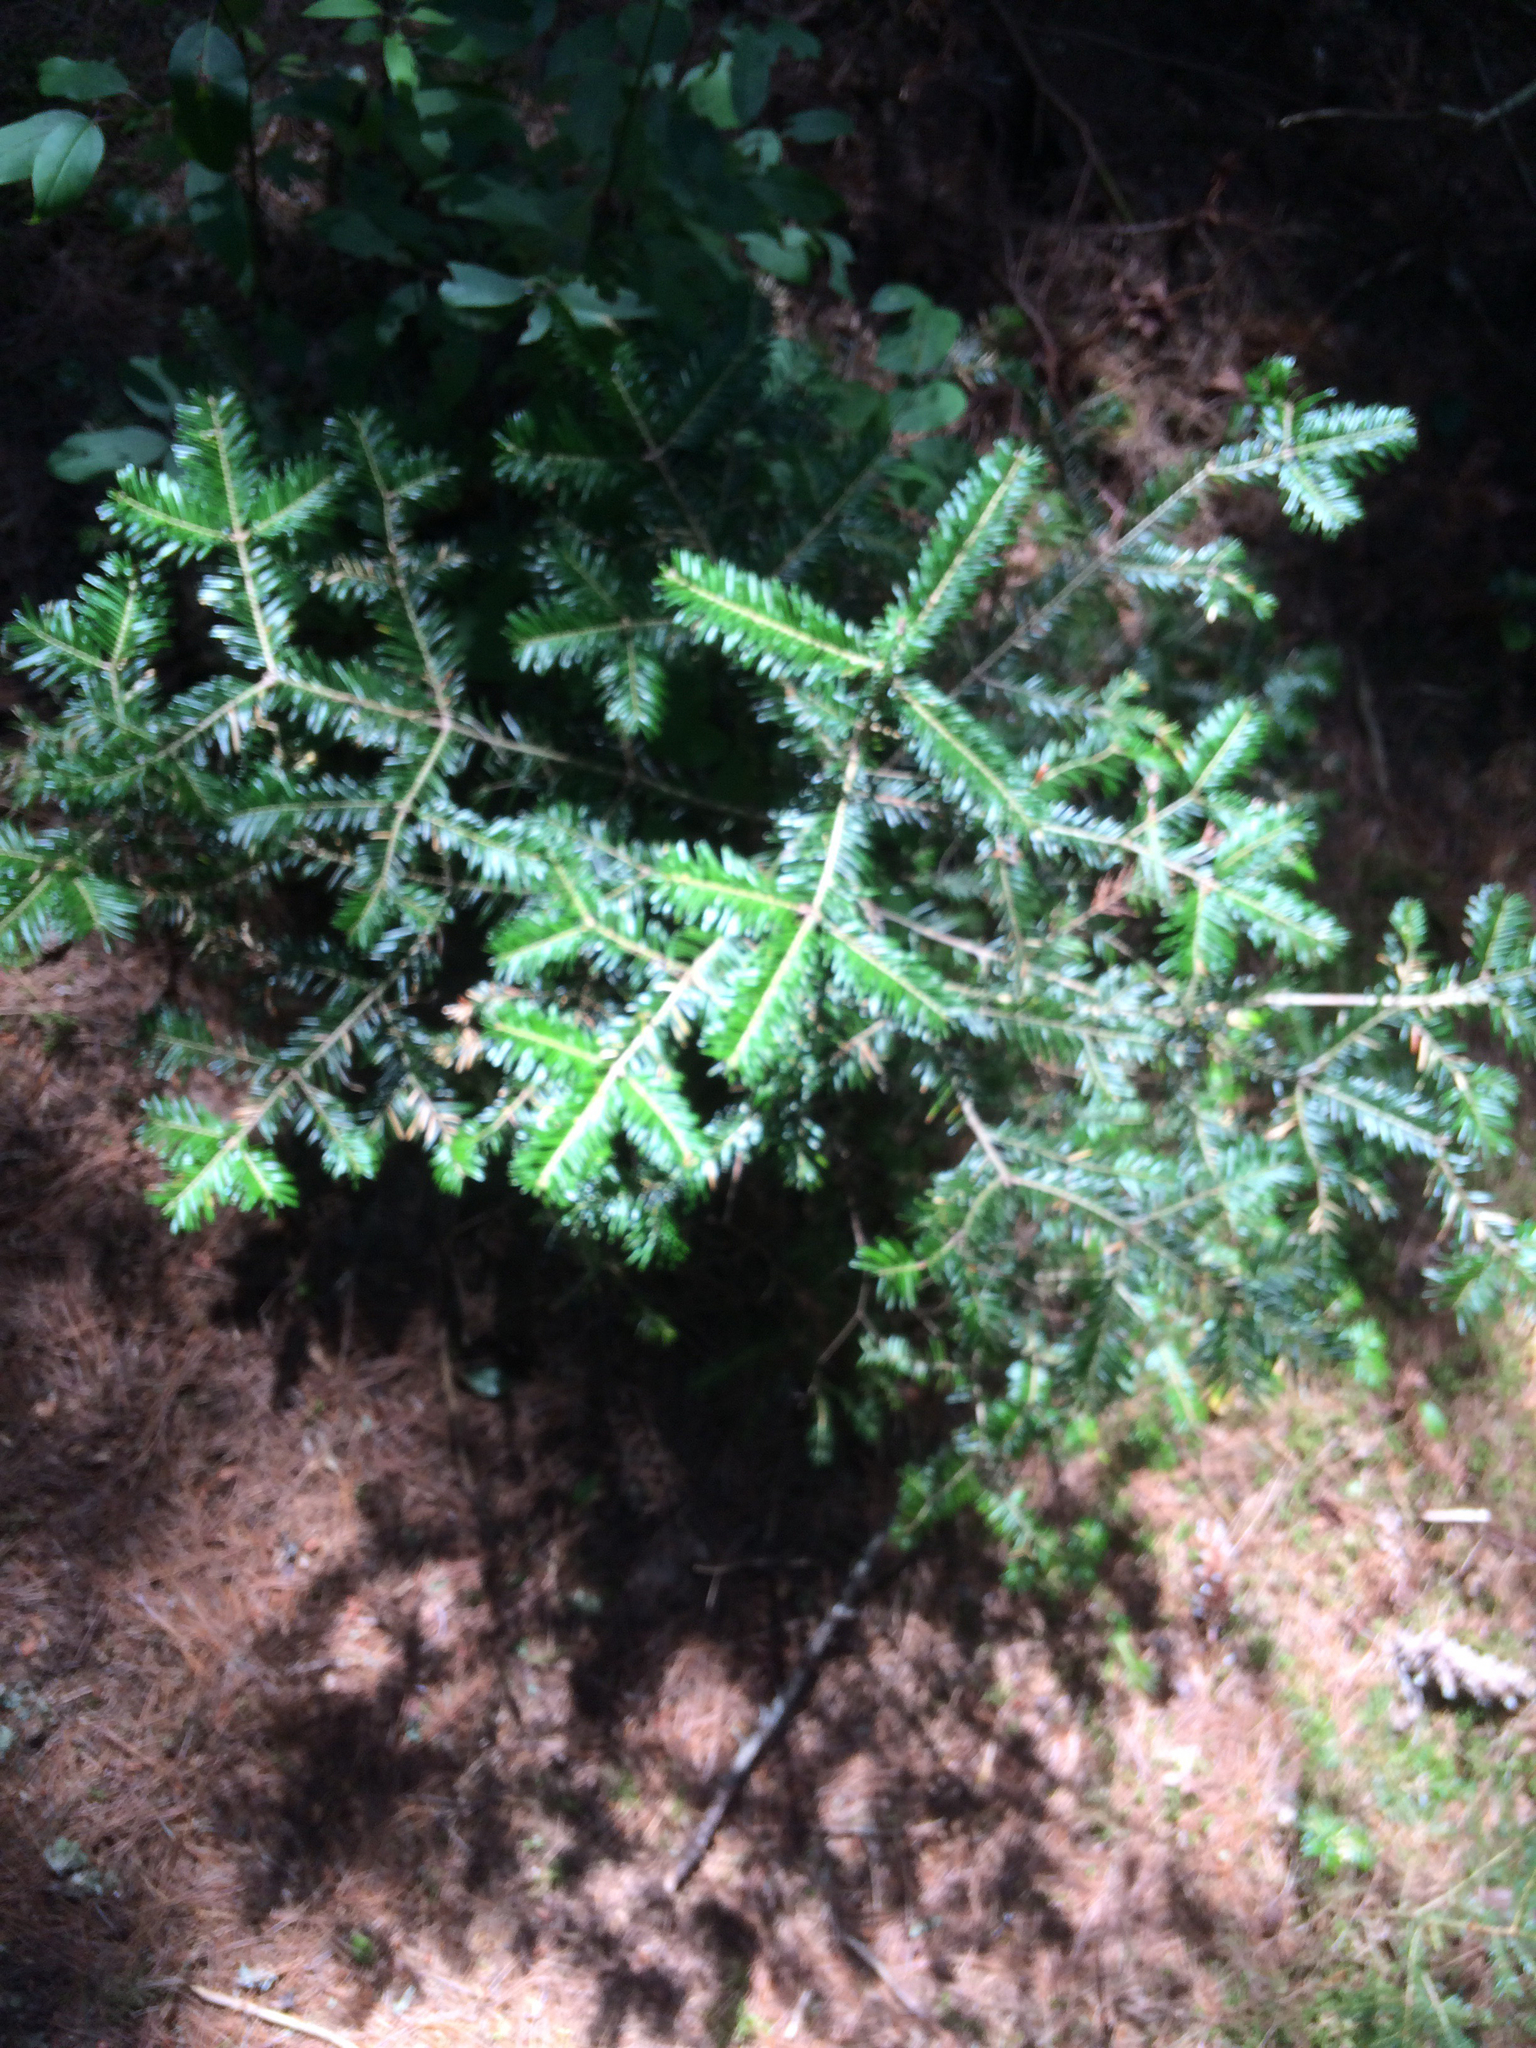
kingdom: Plantae
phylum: Tracheophyta
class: Pinopsida
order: Pinales
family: Pinaceae
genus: Abies
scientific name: Abies balsamea
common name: Balsam fir
